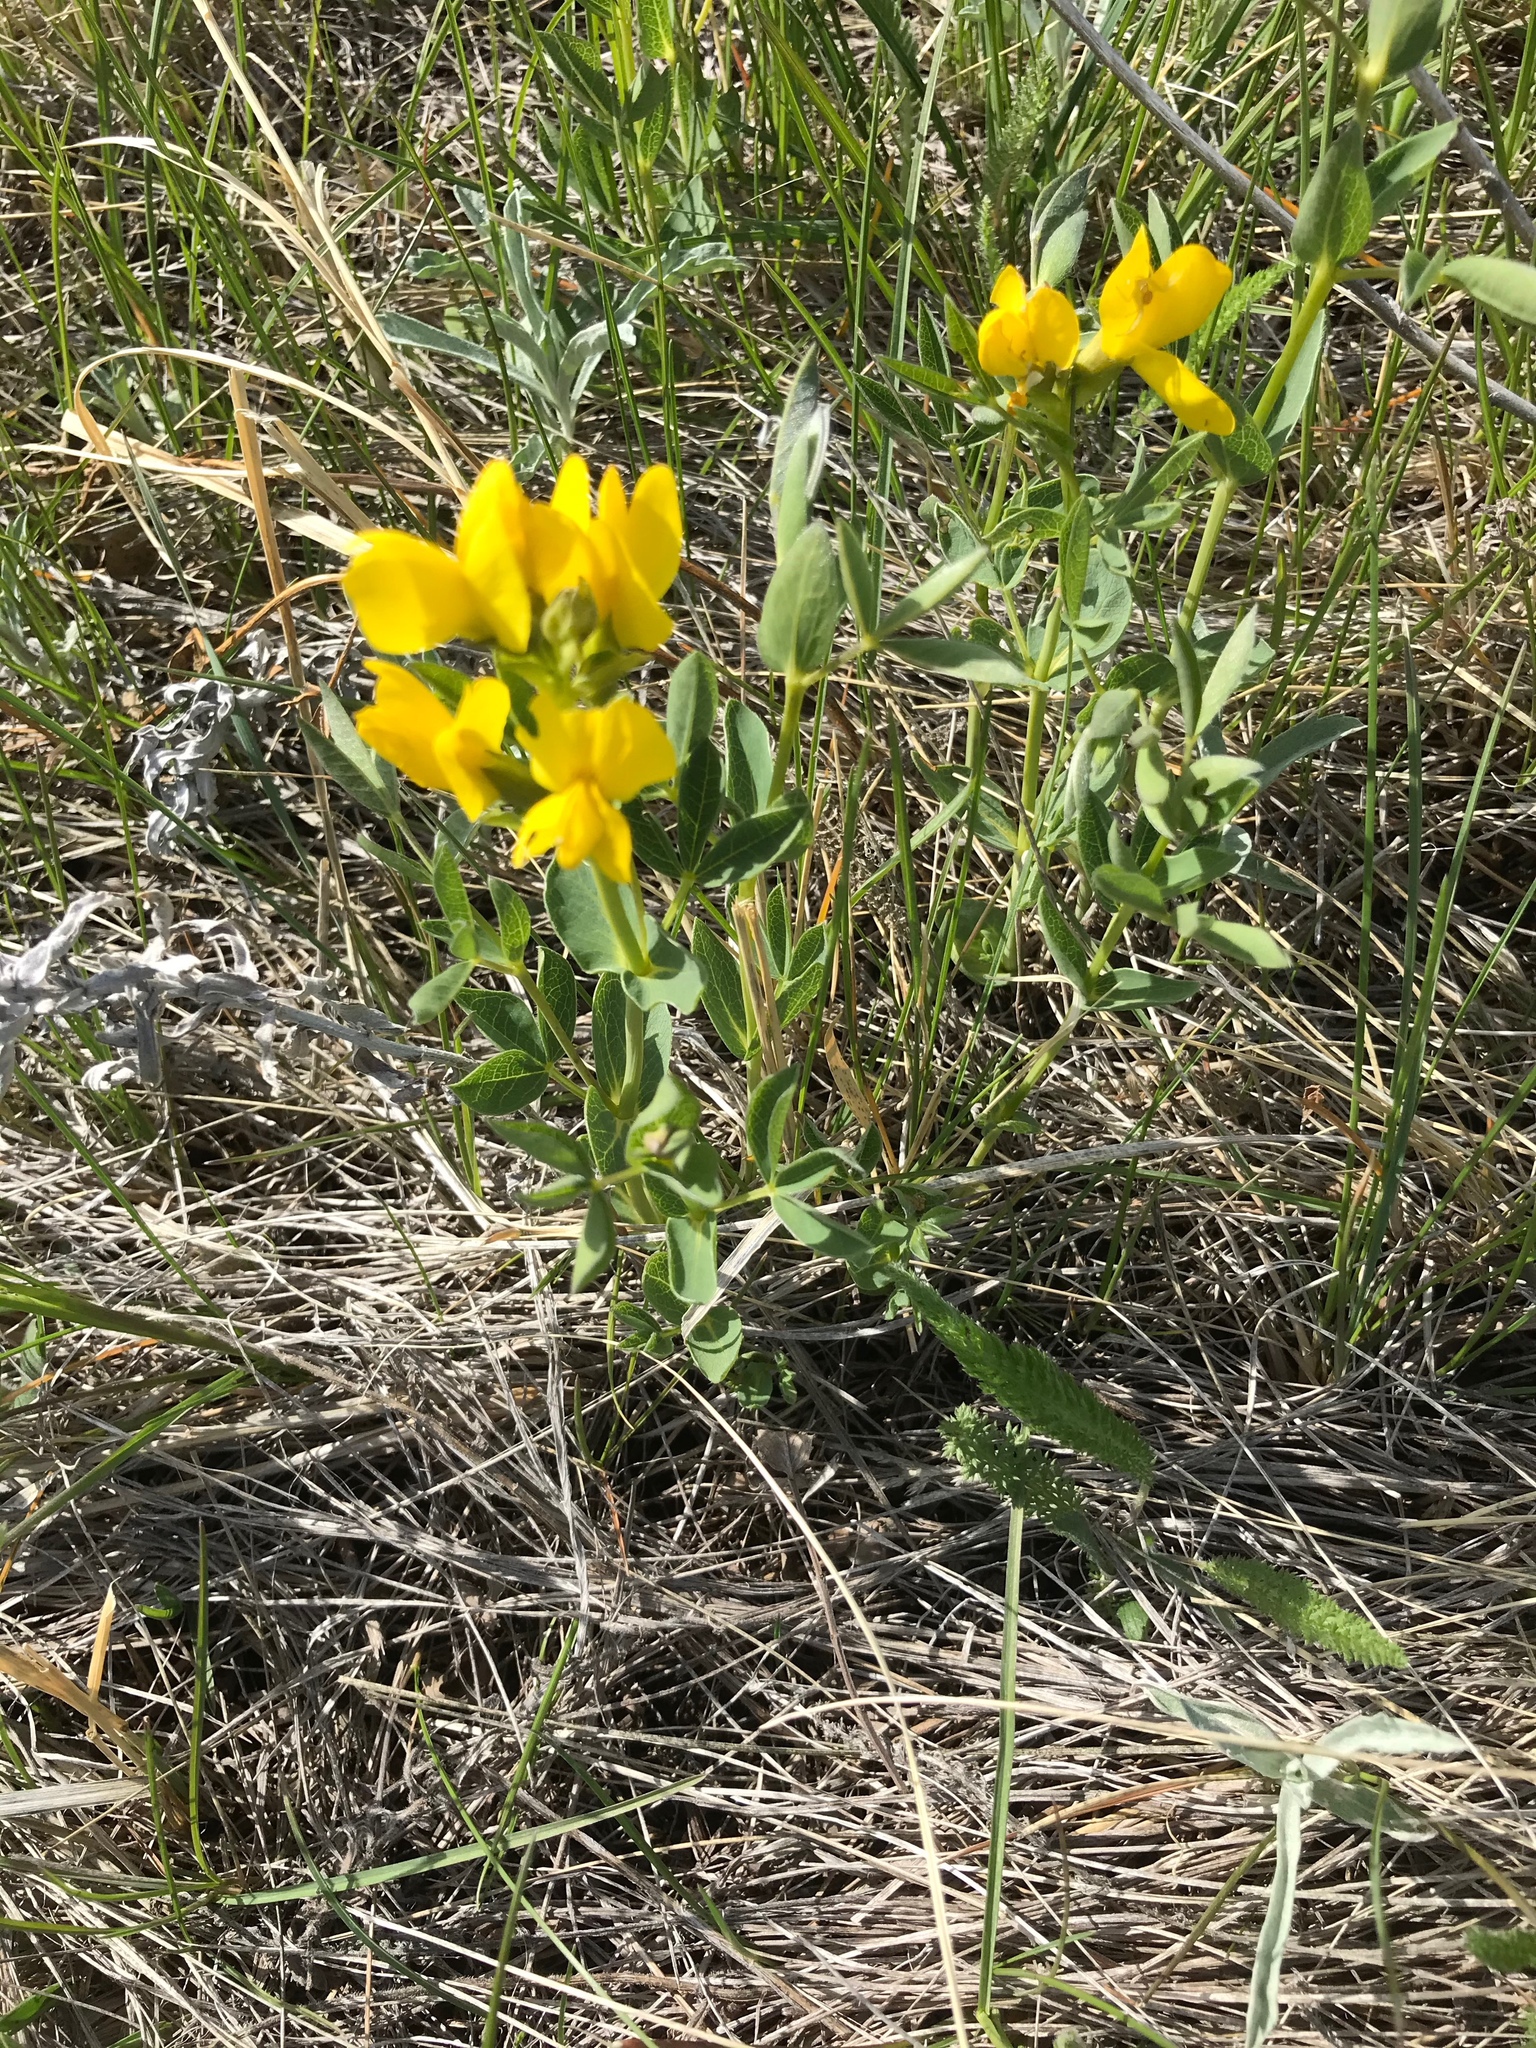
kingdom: Plantae
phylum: Tracheophyta
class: Magnoliopsida
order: Fabales
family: Fabaceae
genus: Thermopsis
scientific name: Thermopsis rhombifolia
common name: Circle-pod-pea
